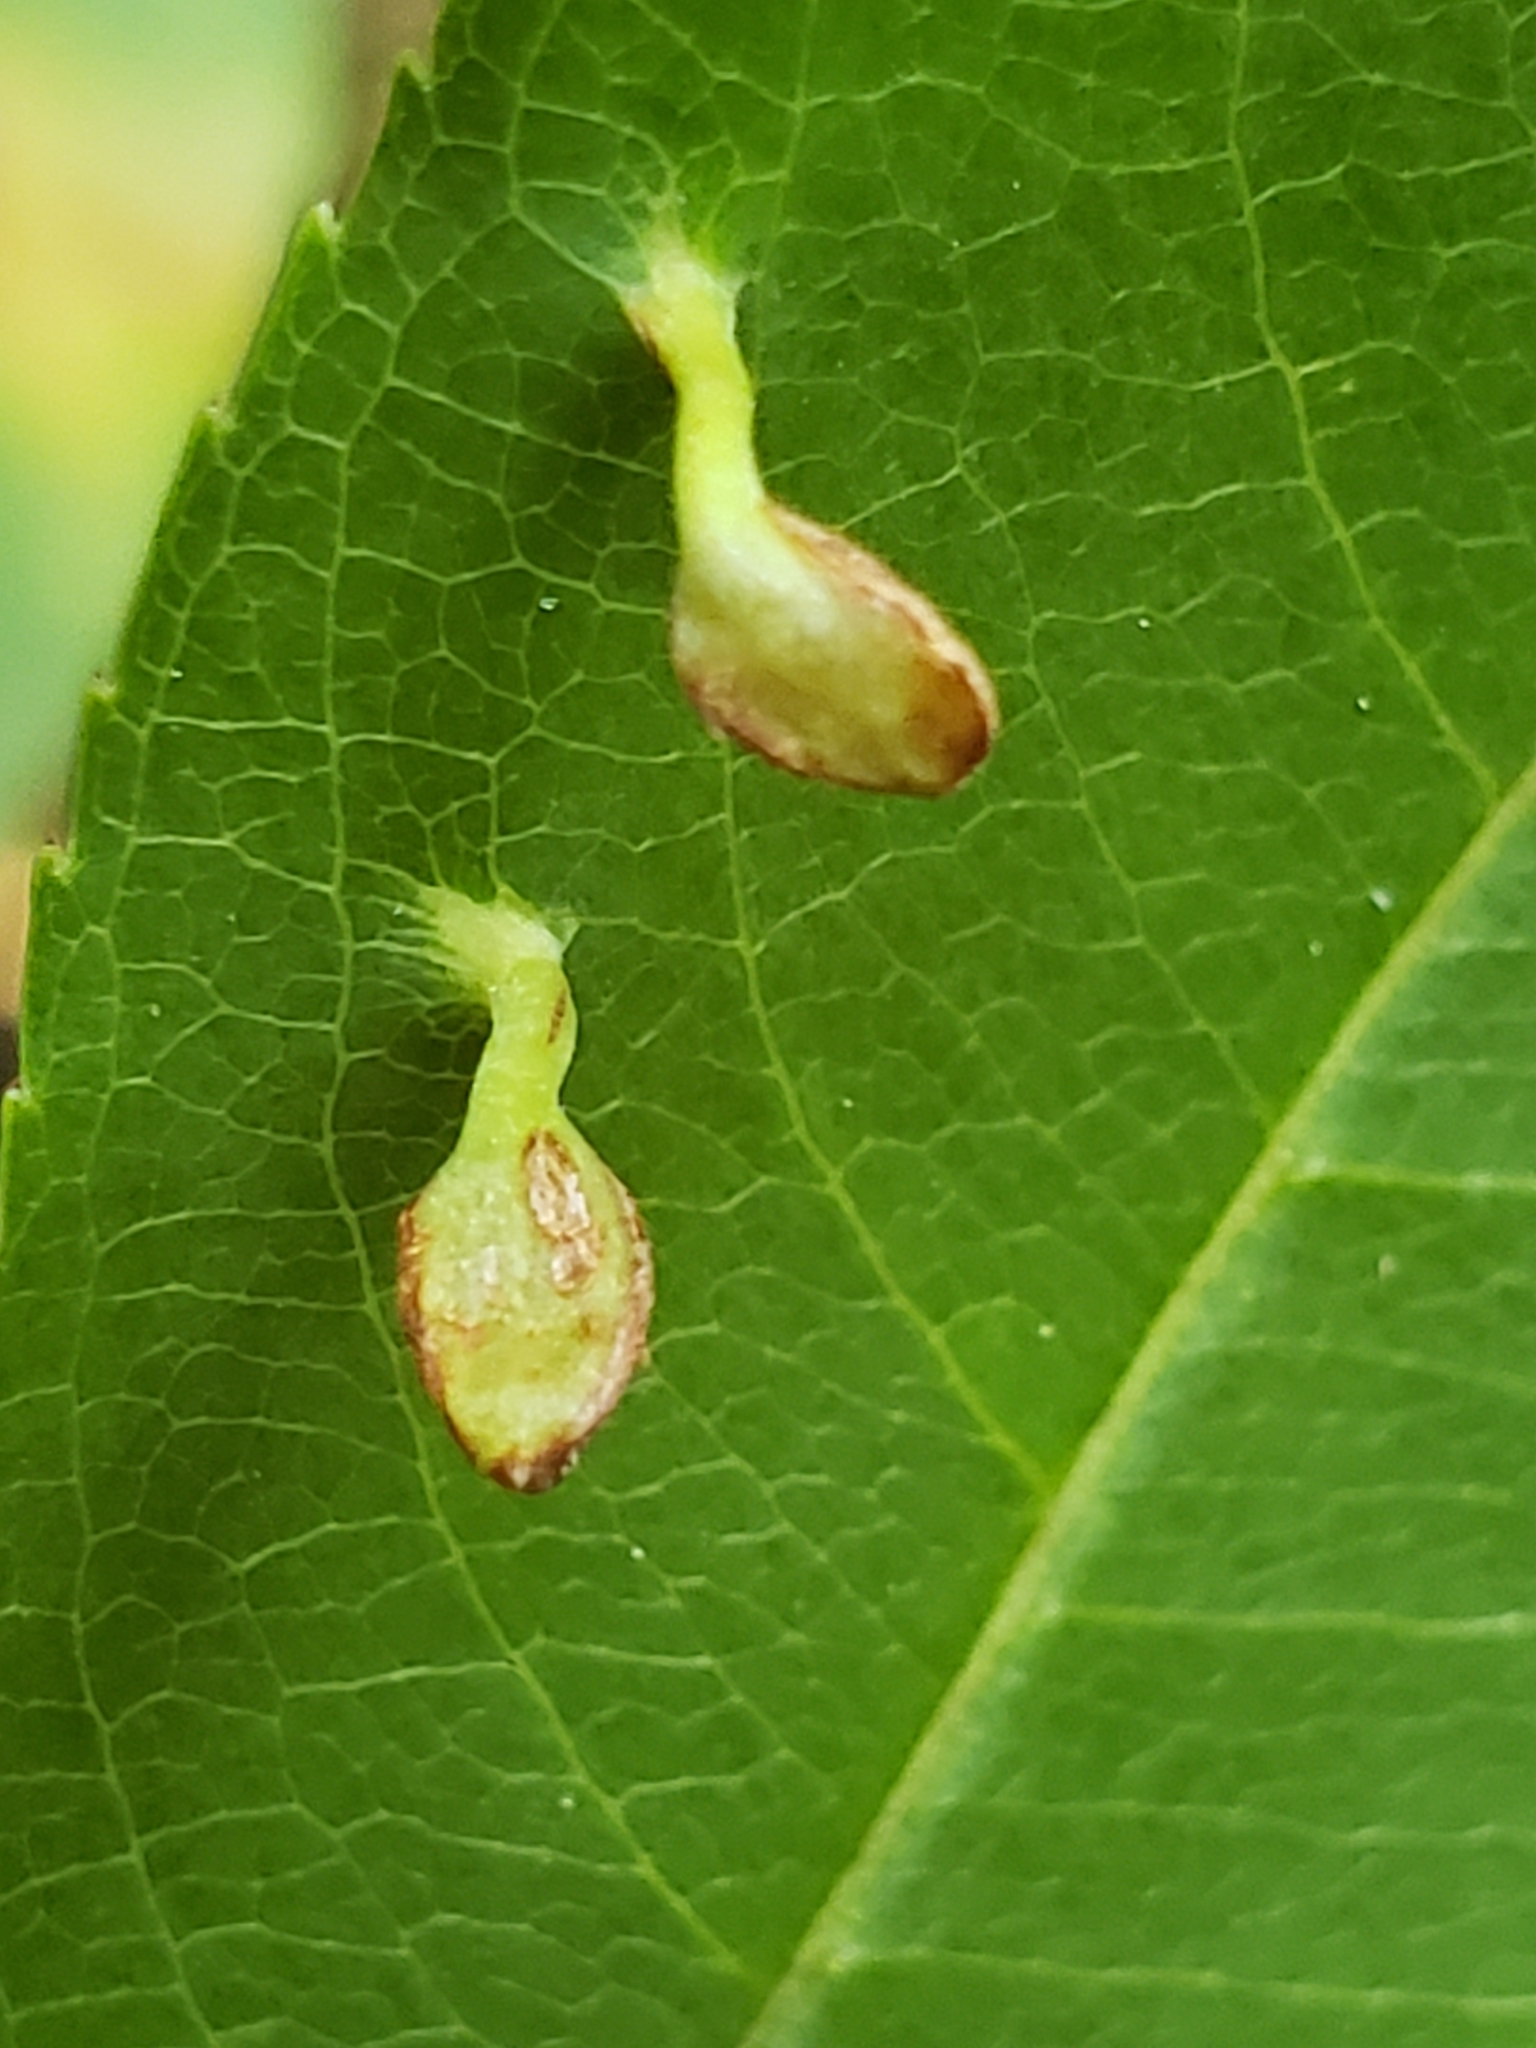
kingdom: Animalia
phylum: Arthropoda
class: Arachnida
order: Trombidiformes
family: Eriophyidae
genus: Eriophyes
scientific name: Eriophyes
